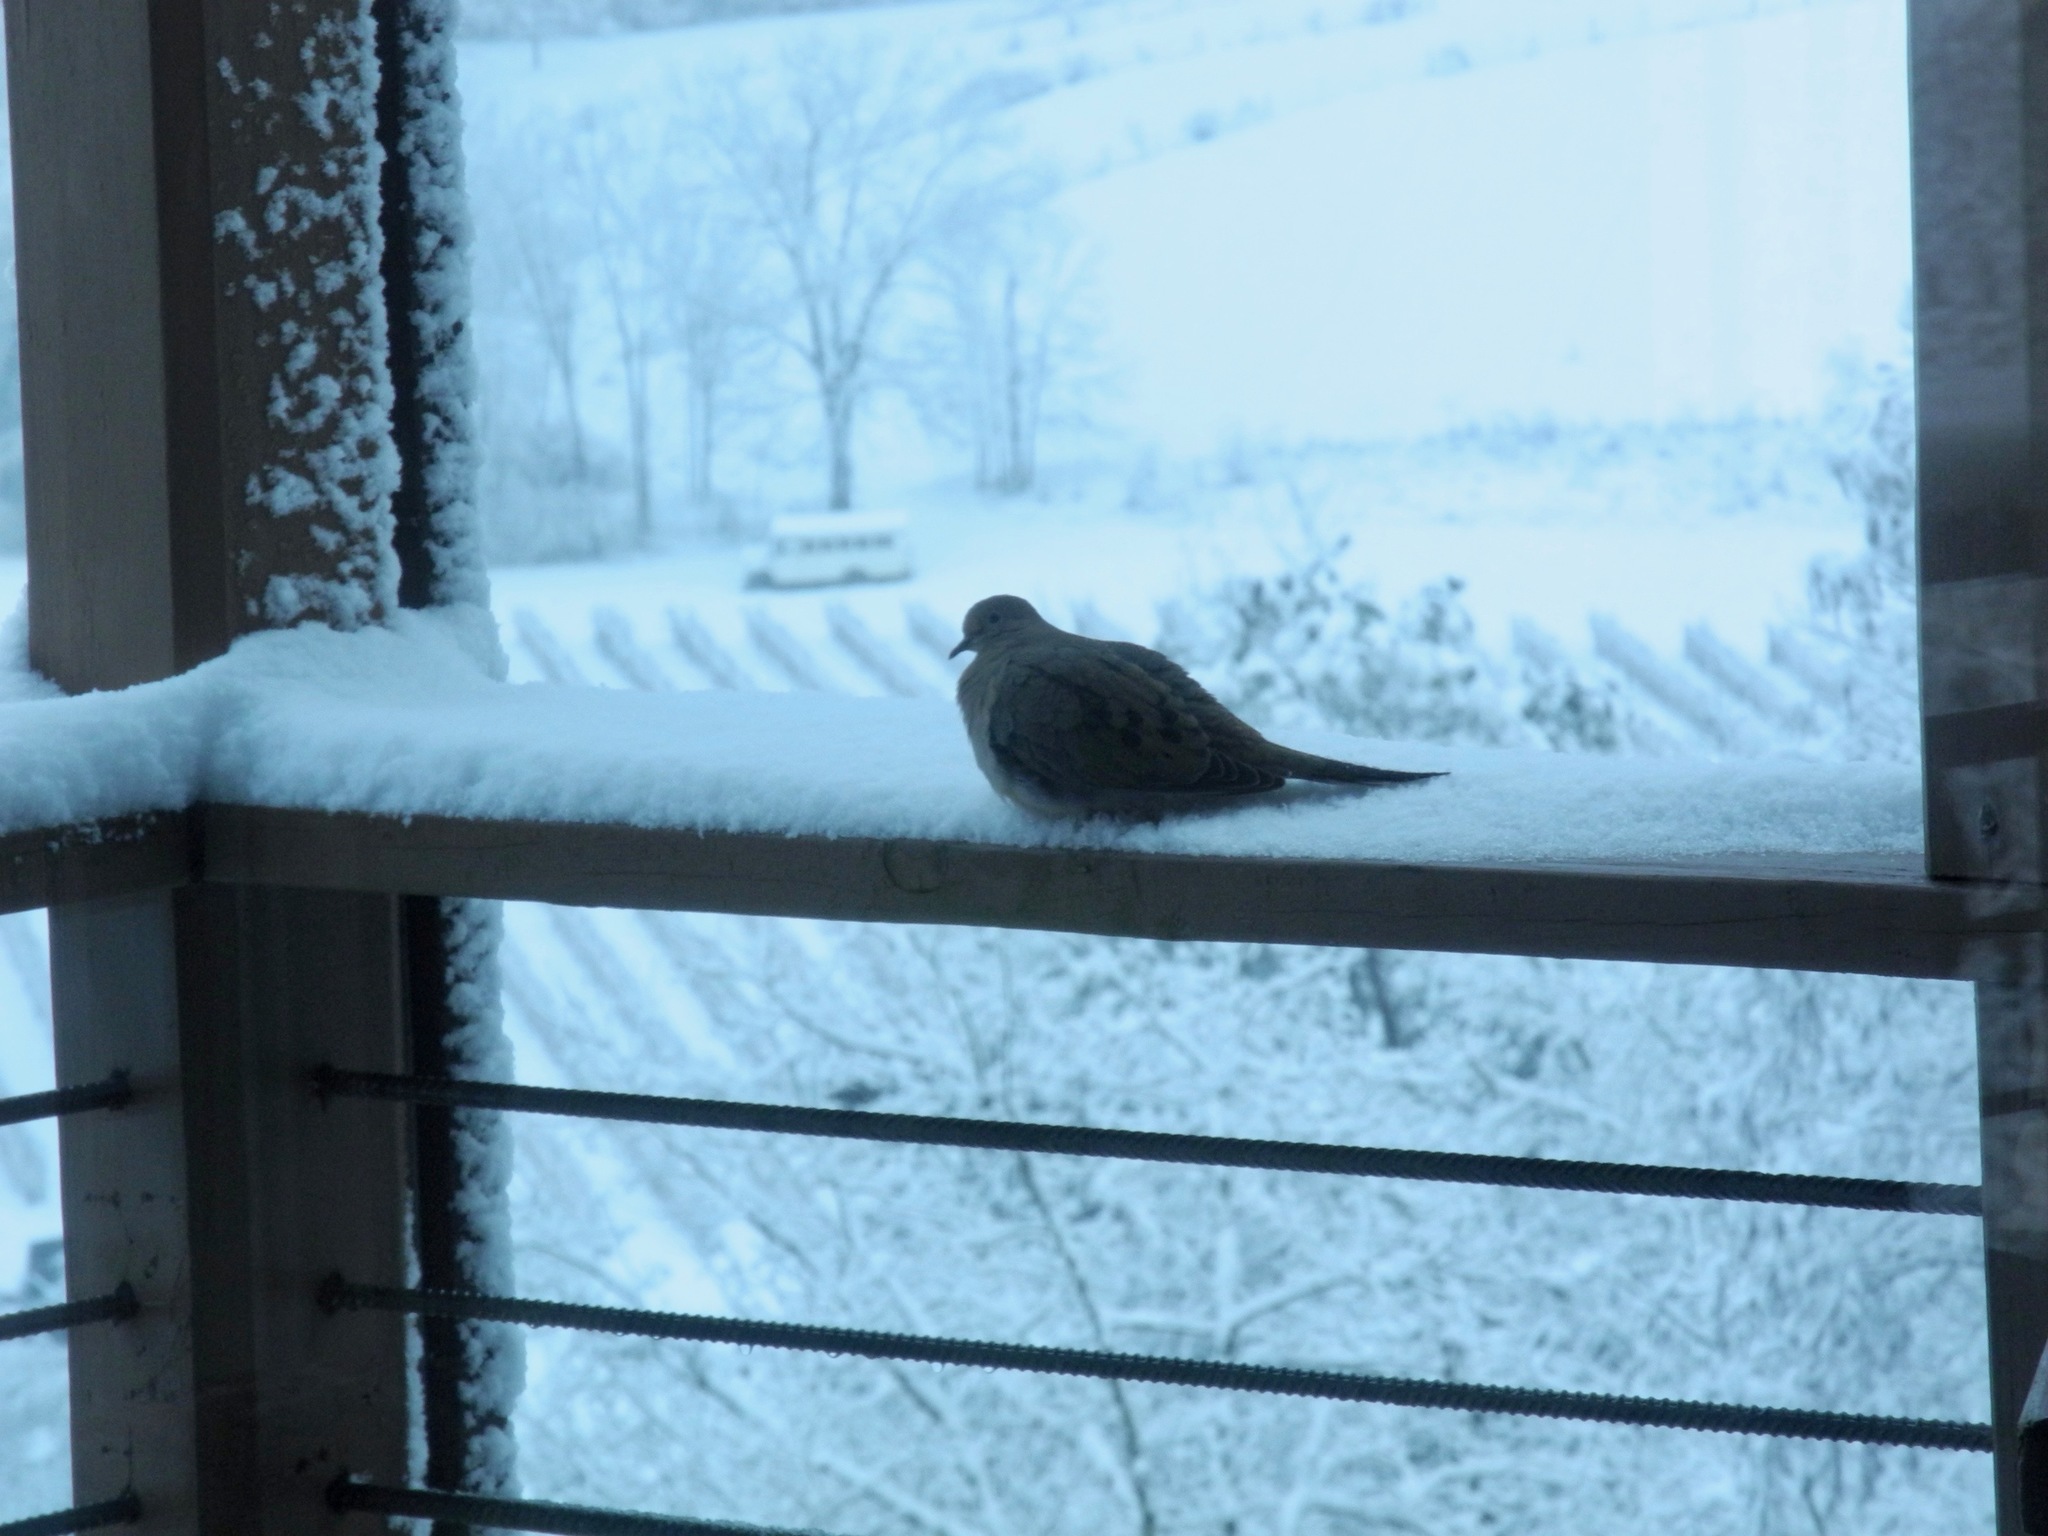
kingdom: Animalia
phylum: Chordata
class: Aves
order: Columbiformes
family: Columbidae
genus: Zenaida
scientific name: Zenaida macroura
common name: Mourning dove
